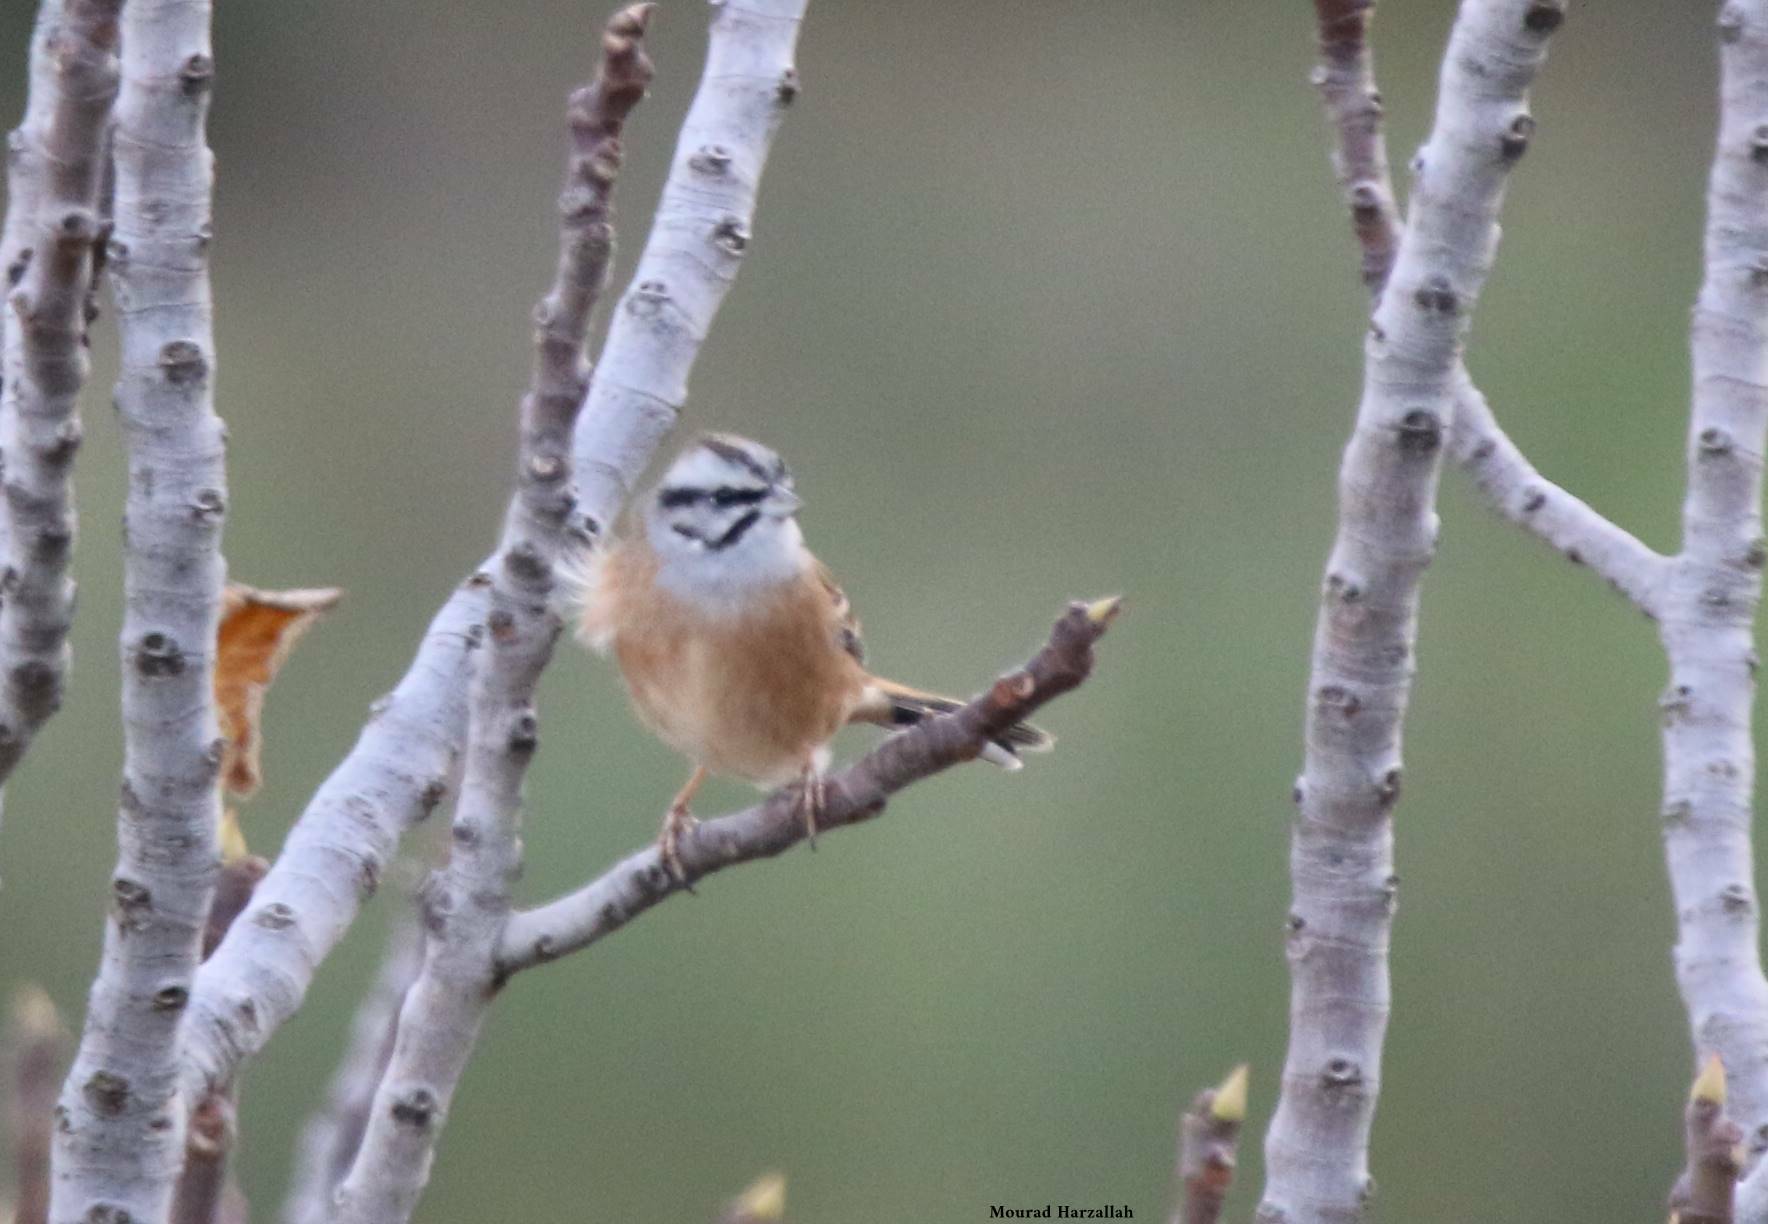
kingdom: Animalia
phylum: Chordata
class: Aves
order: Passeriformes
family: Emberizidae
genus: Emberiza
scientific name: Emberiza cia
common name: Rock bunting
